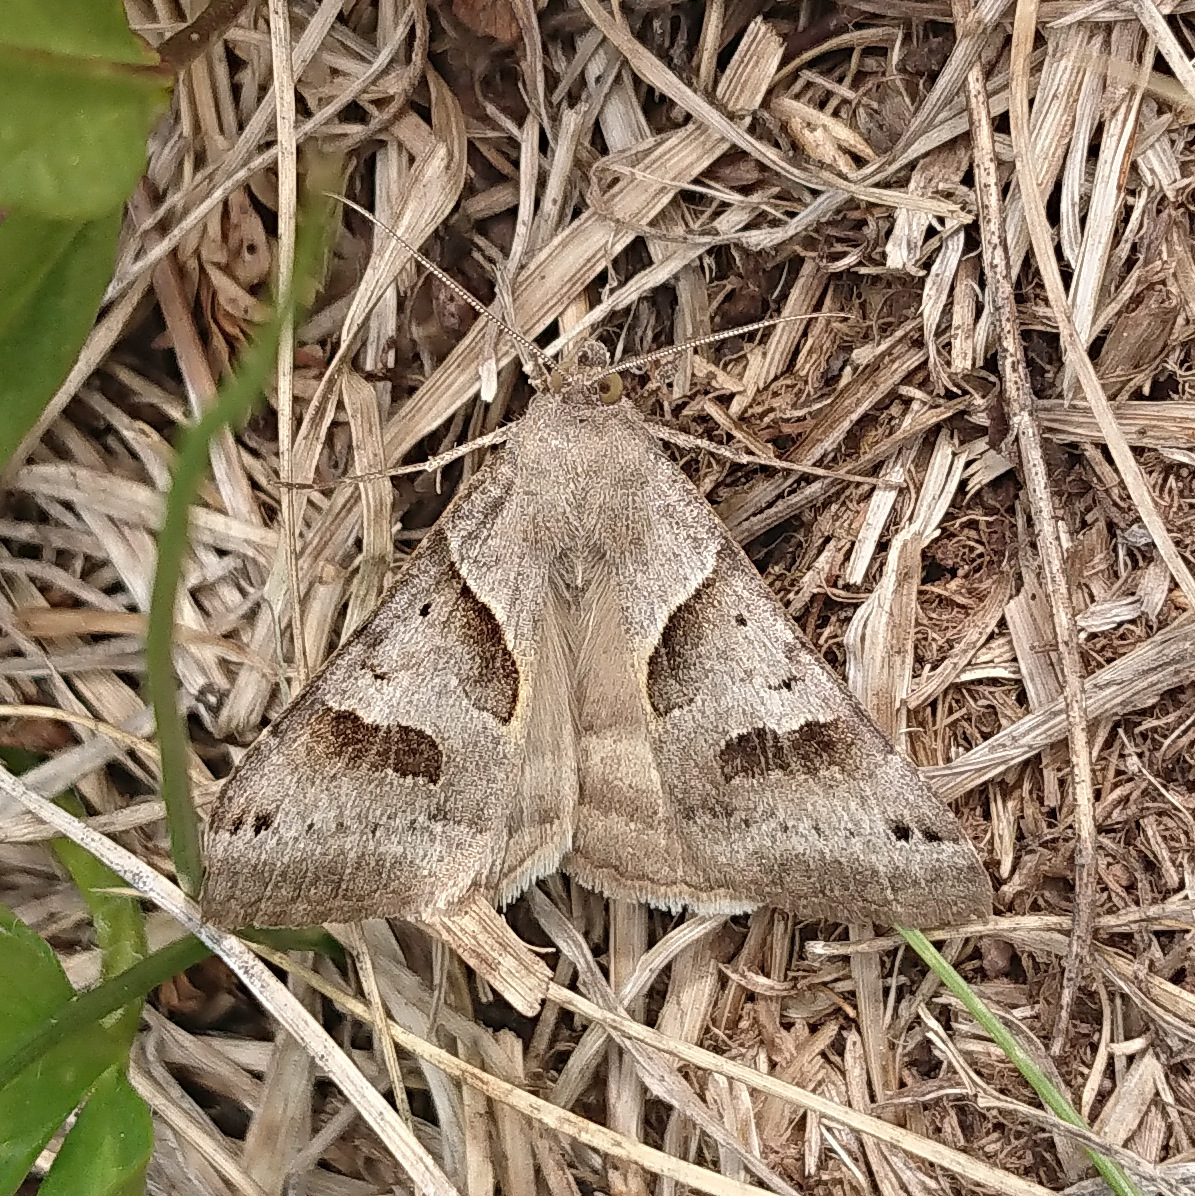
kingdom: Animalia
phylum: Arthropoda
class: Insecta
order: Lepidoptera
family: Erebidae
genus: Caenurgina
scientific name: Caenurgina erechtea
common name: Forage looper moth
